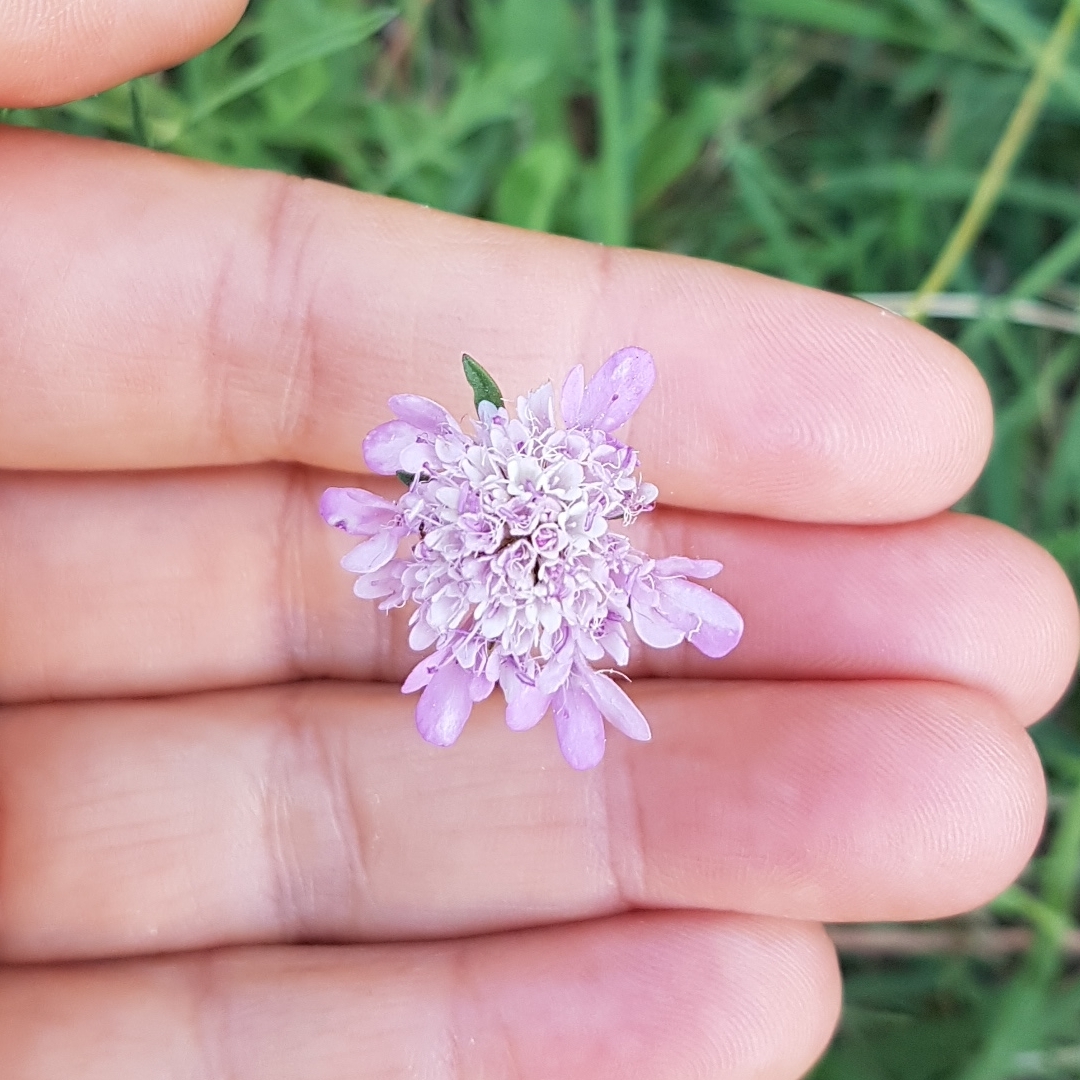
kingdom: Plantae
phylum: Tracheophyta
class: Magnoliopsida
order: Dipsacales
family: Caprifoliaceae
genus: Sixalix
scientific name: Sixalix atropurpurea
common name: Sweet scabious
